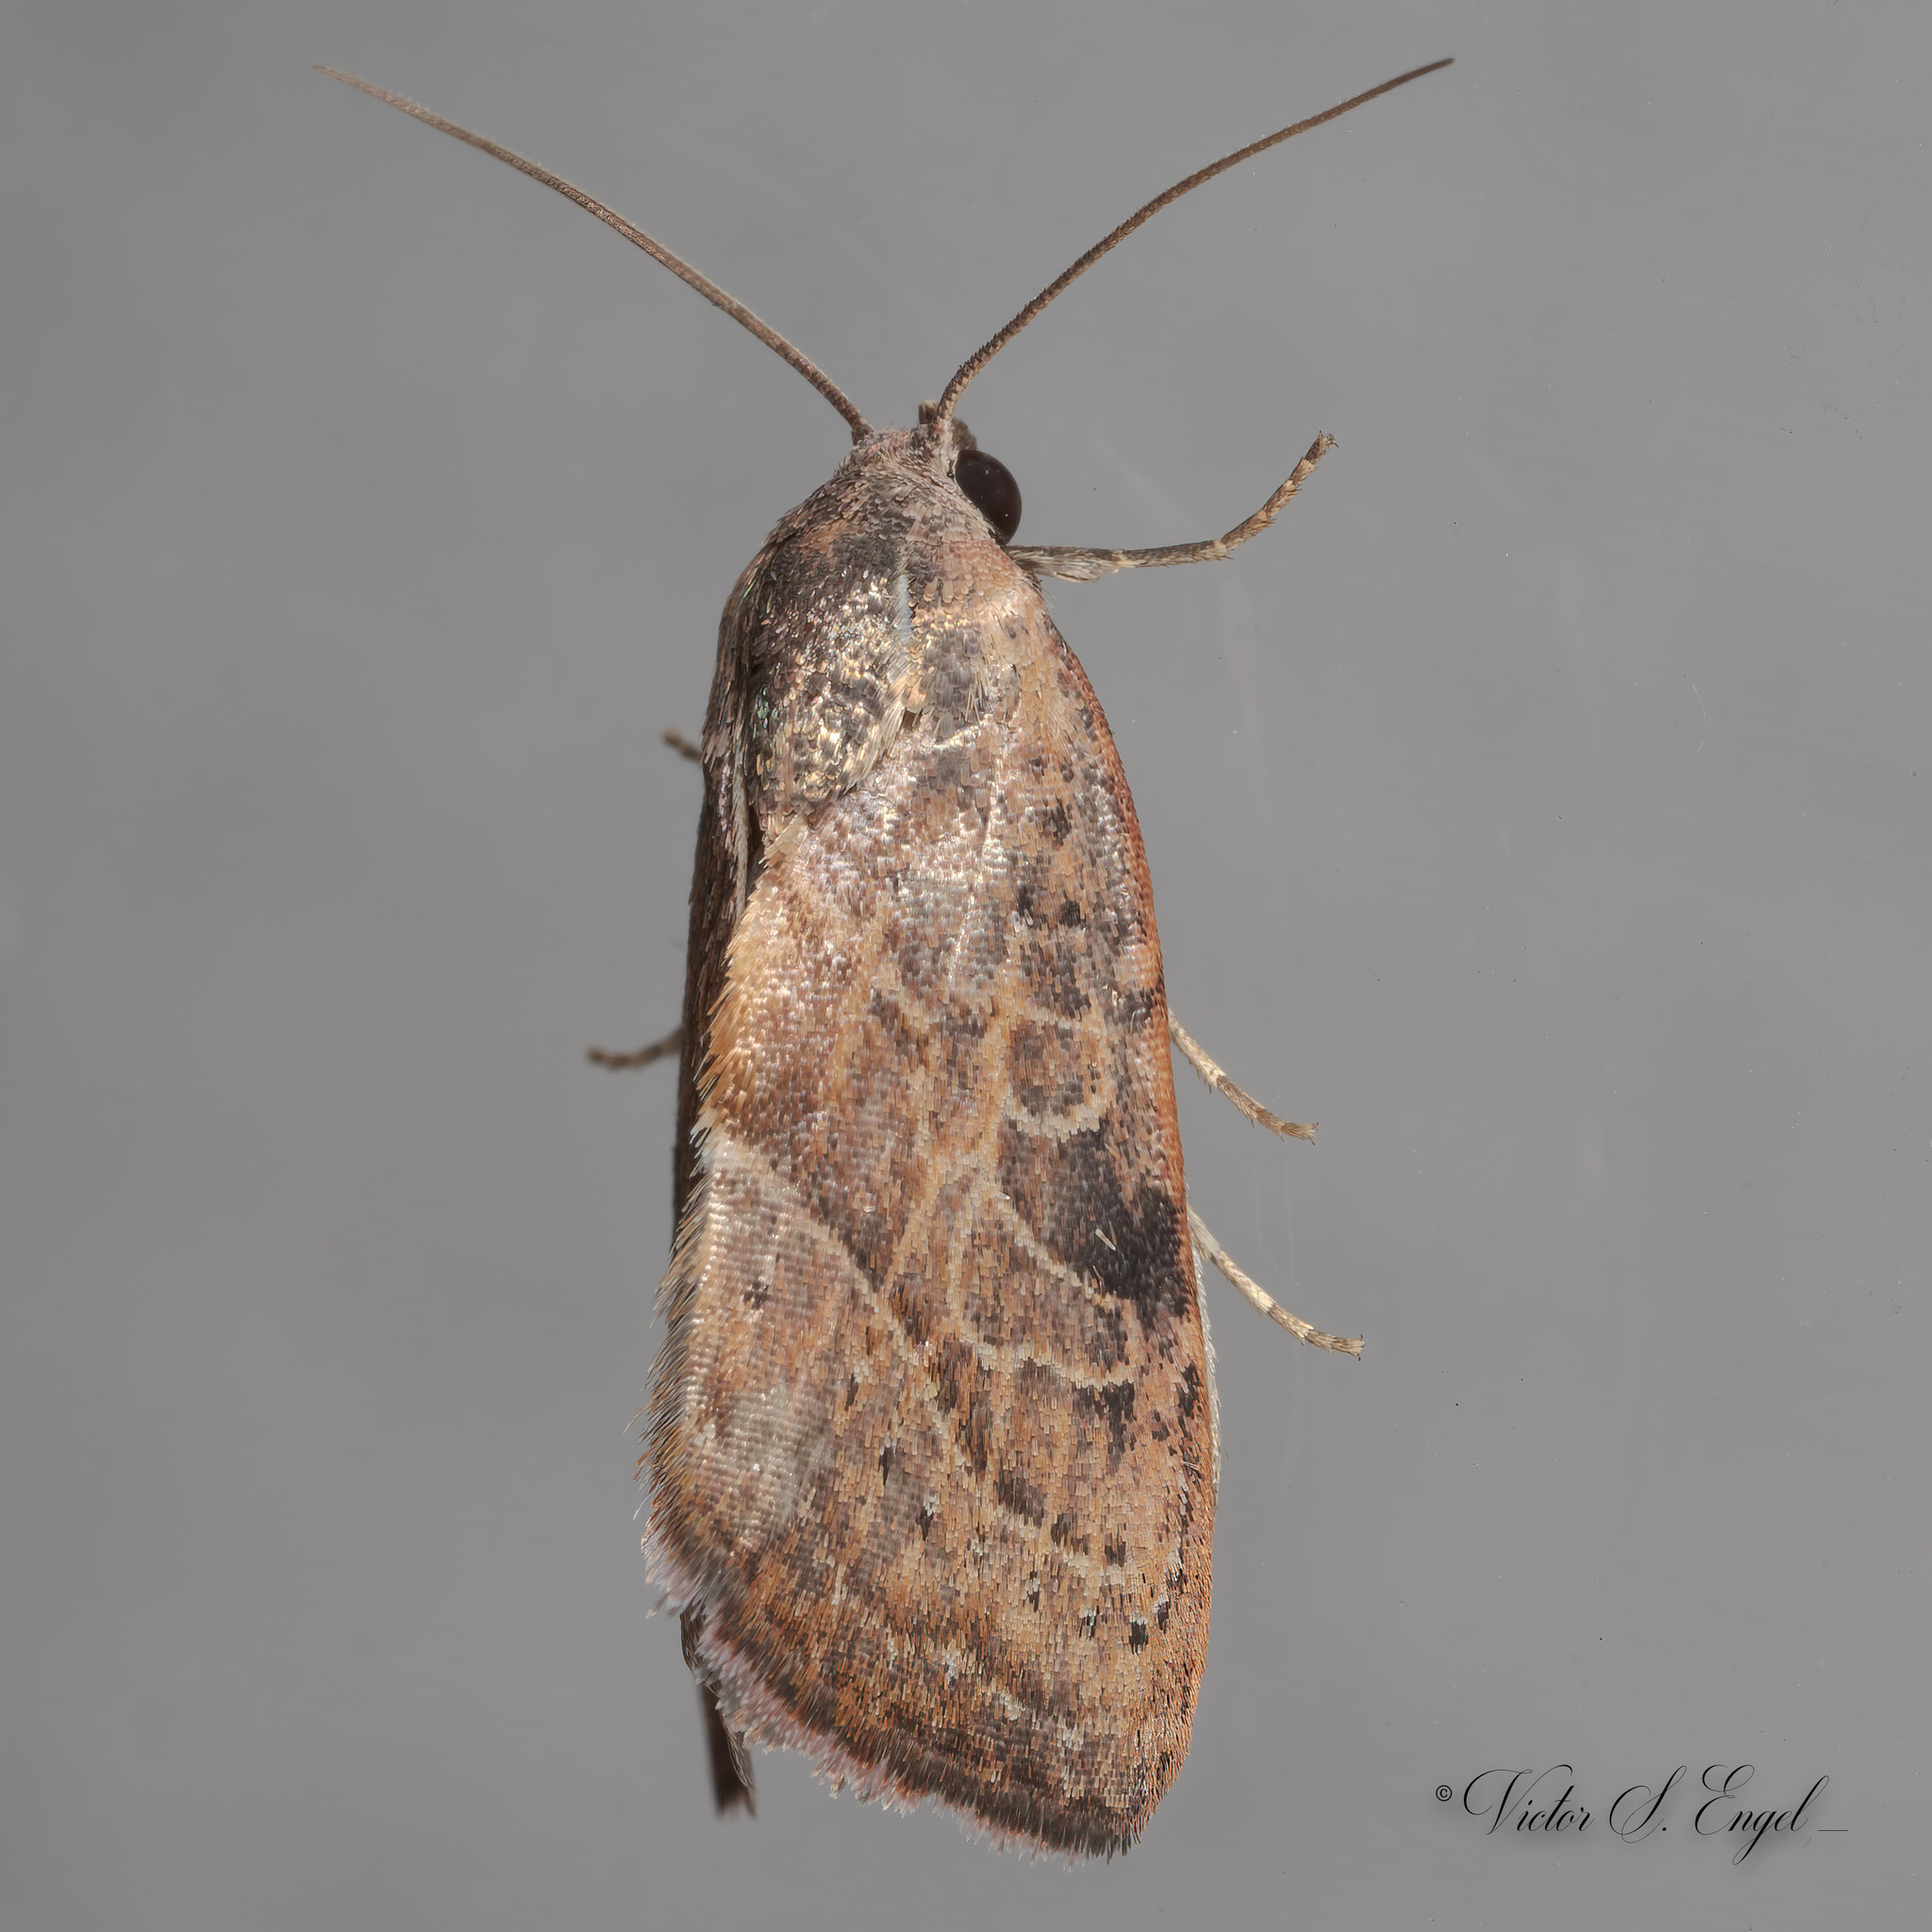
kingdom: Animalia
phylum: Arthropoda
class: Insecta
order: Lepidoptera
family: Noctuidae
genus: Galgula
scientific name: Galgula partita
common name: Wedgeling
